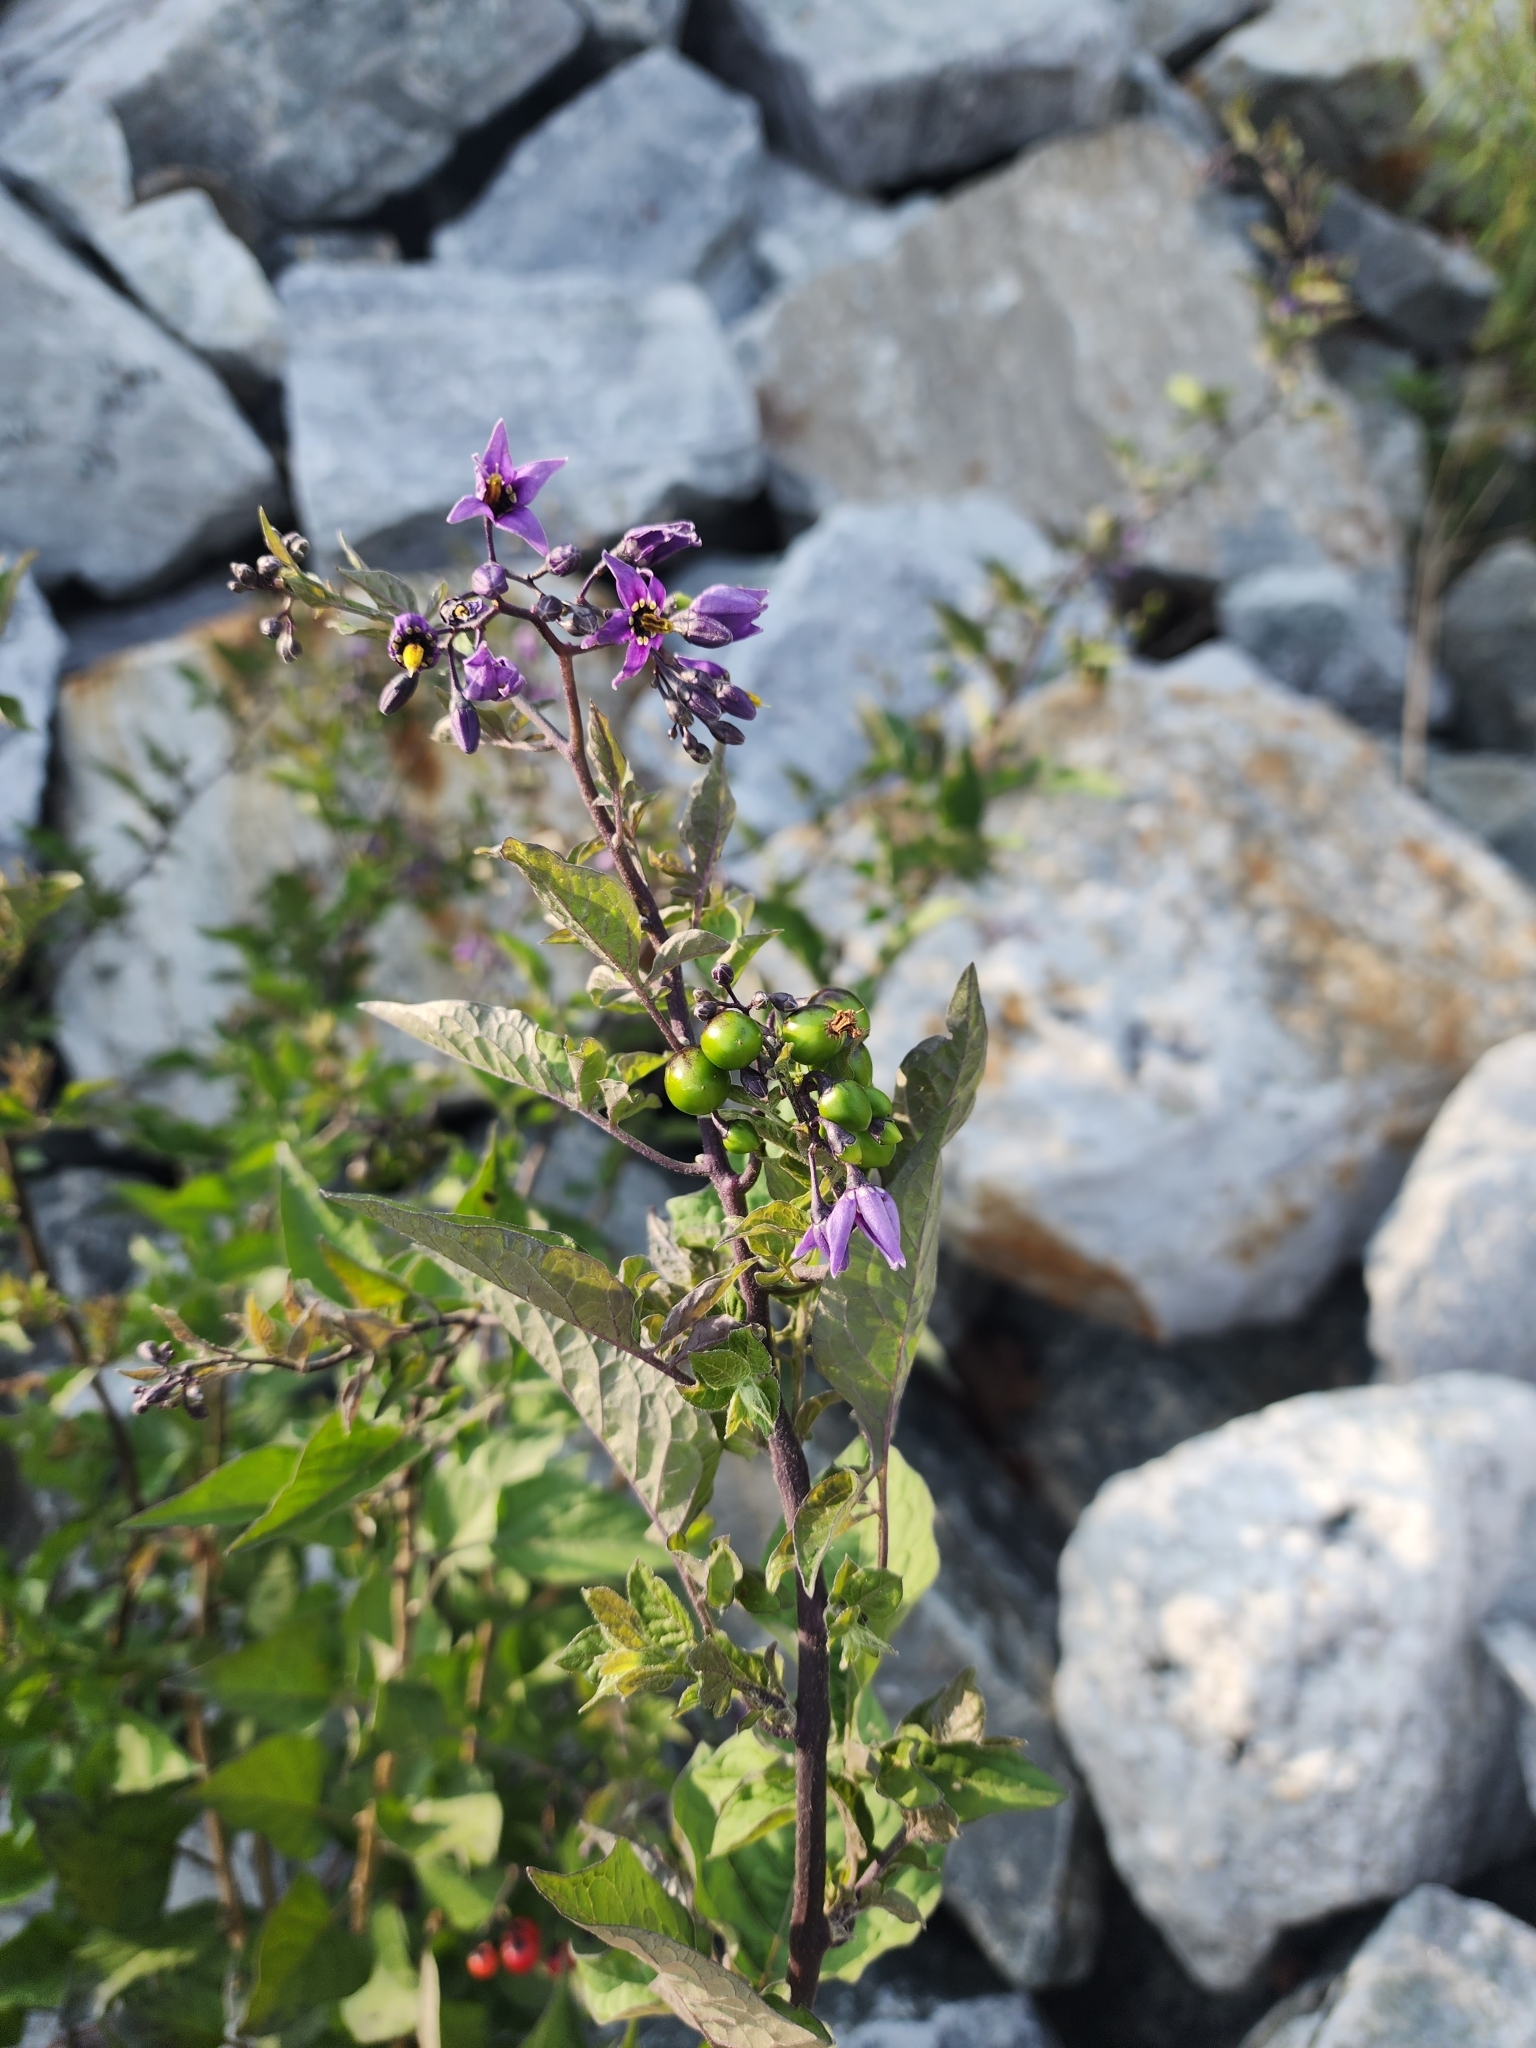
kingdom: Plantae
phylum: Tracheophyta
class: Magnoliopsida
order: Solanales
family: Solanaceae
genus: Solanum
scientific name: Solanum dulcamara
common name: Climbing nightshade
